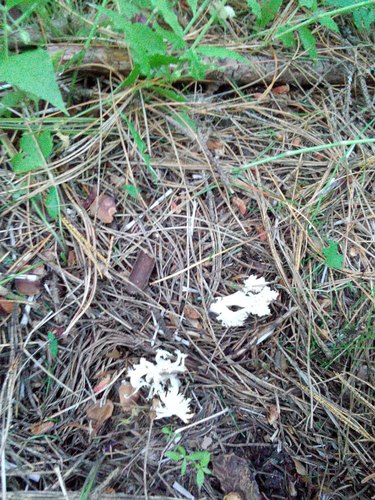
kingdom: Fungi
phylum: Basidiomycota
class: Agaricomycetes
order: Cantharellales
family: Hydnaceae
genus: Clavulina
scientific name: Clavulina coralloides
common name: Crested coral
